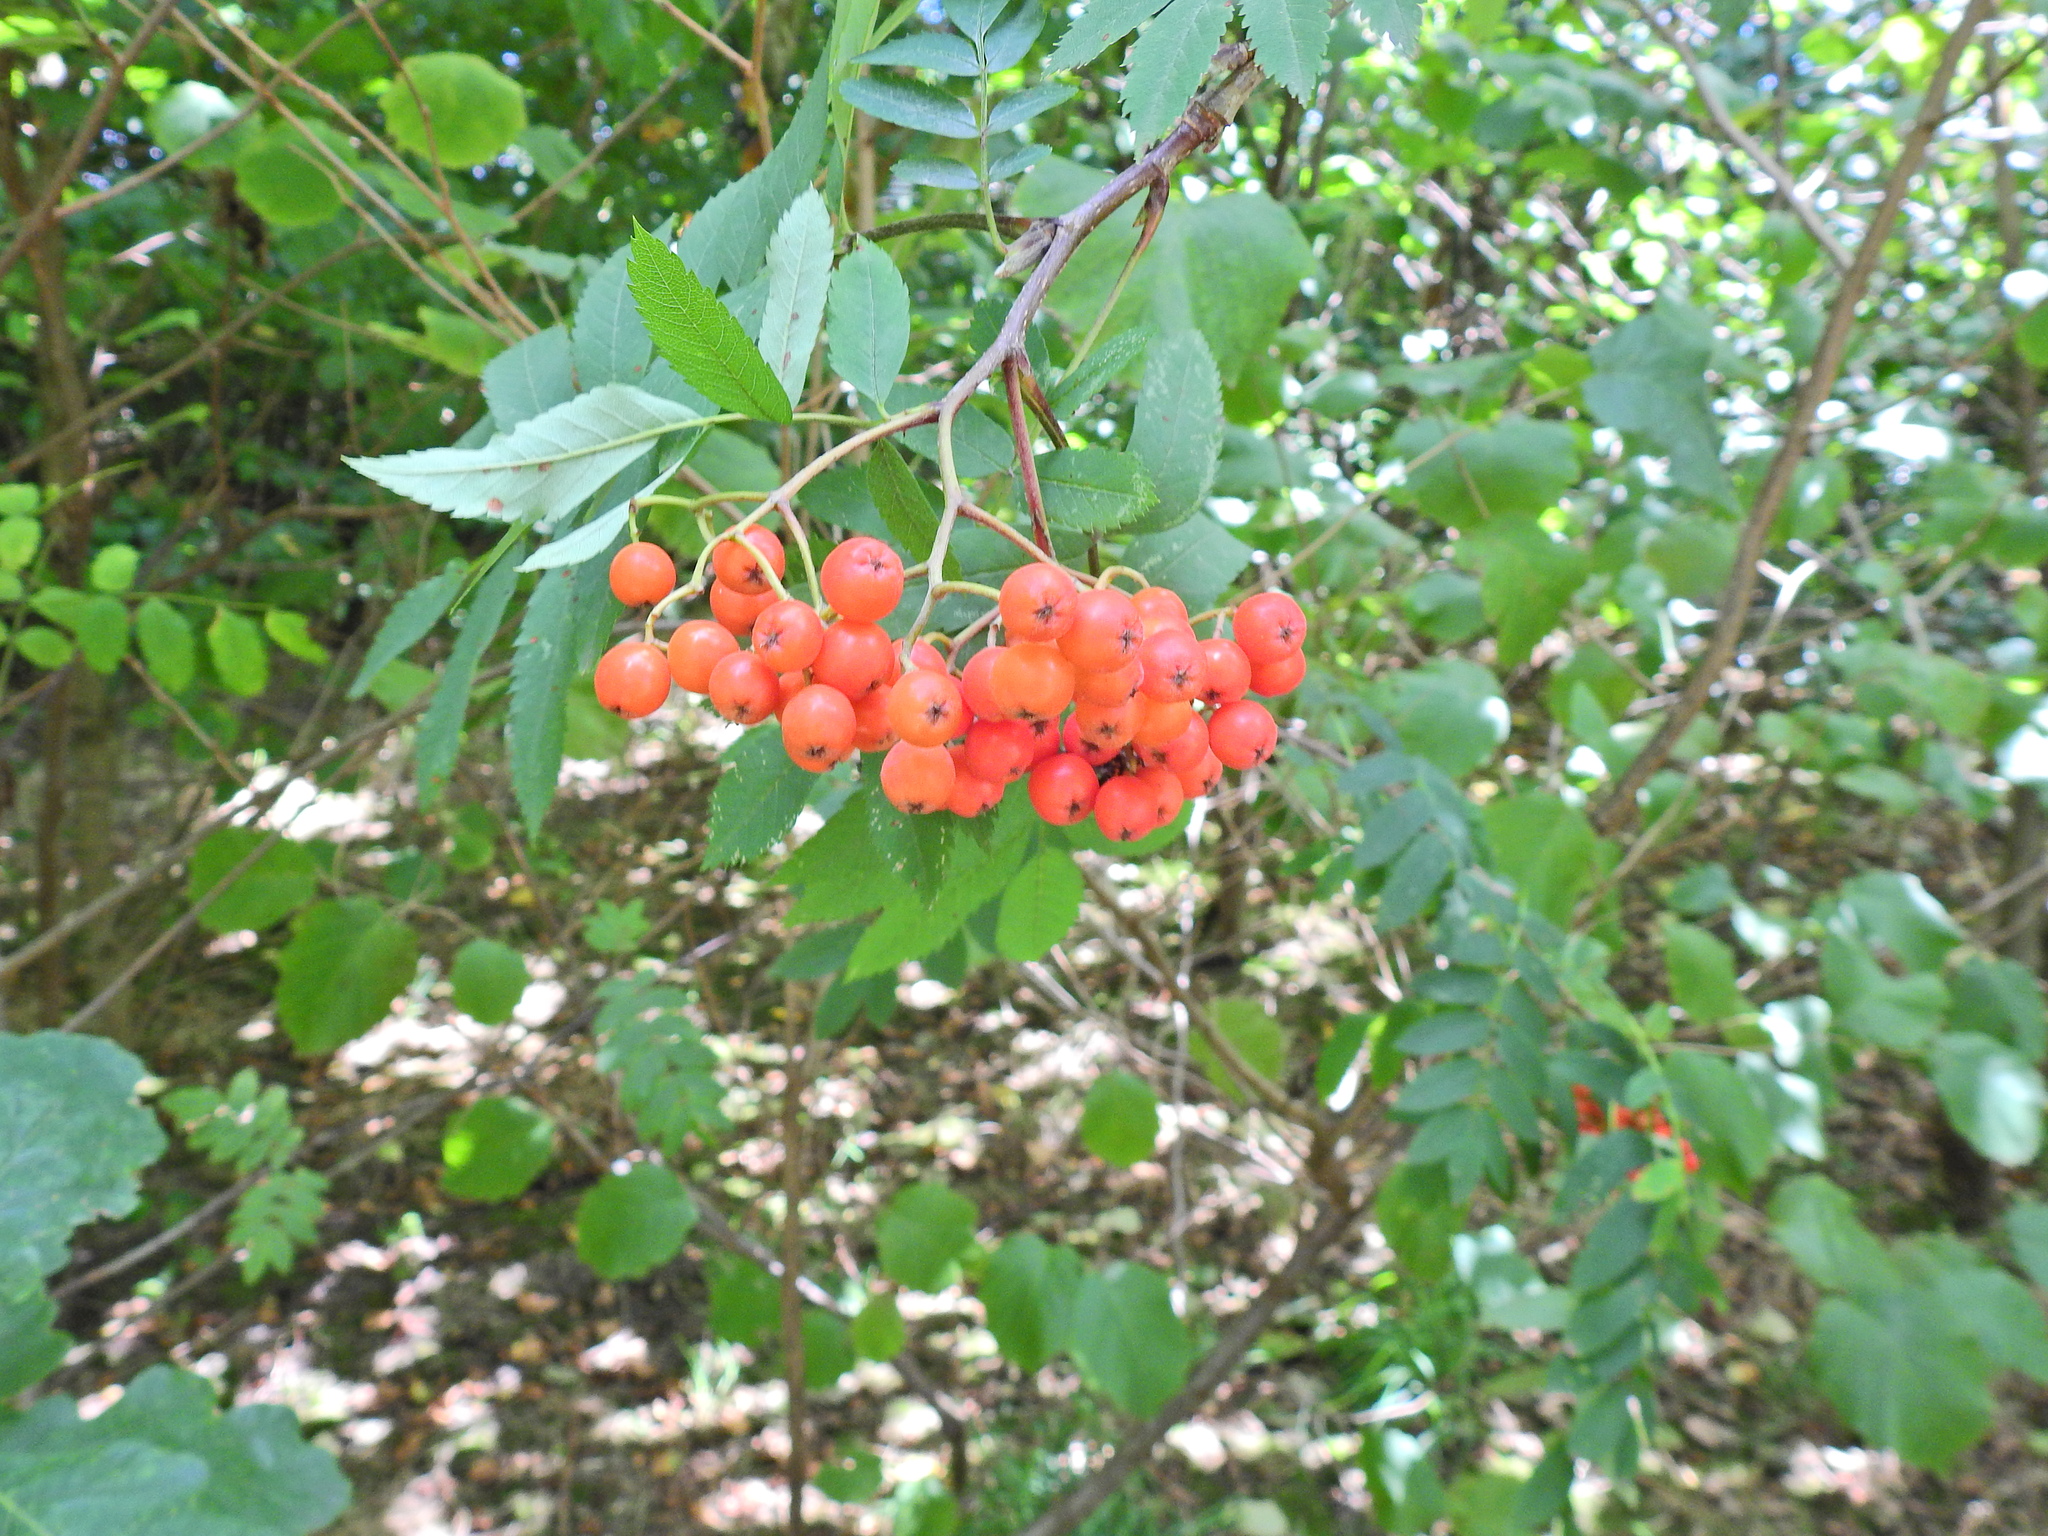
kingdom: Plantae
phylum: Tracheophyta
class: Magnoliopsida
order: Rosales
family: Rosaceae
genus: Sorbus
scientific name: Sorbus aucuparia
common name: Rowan
